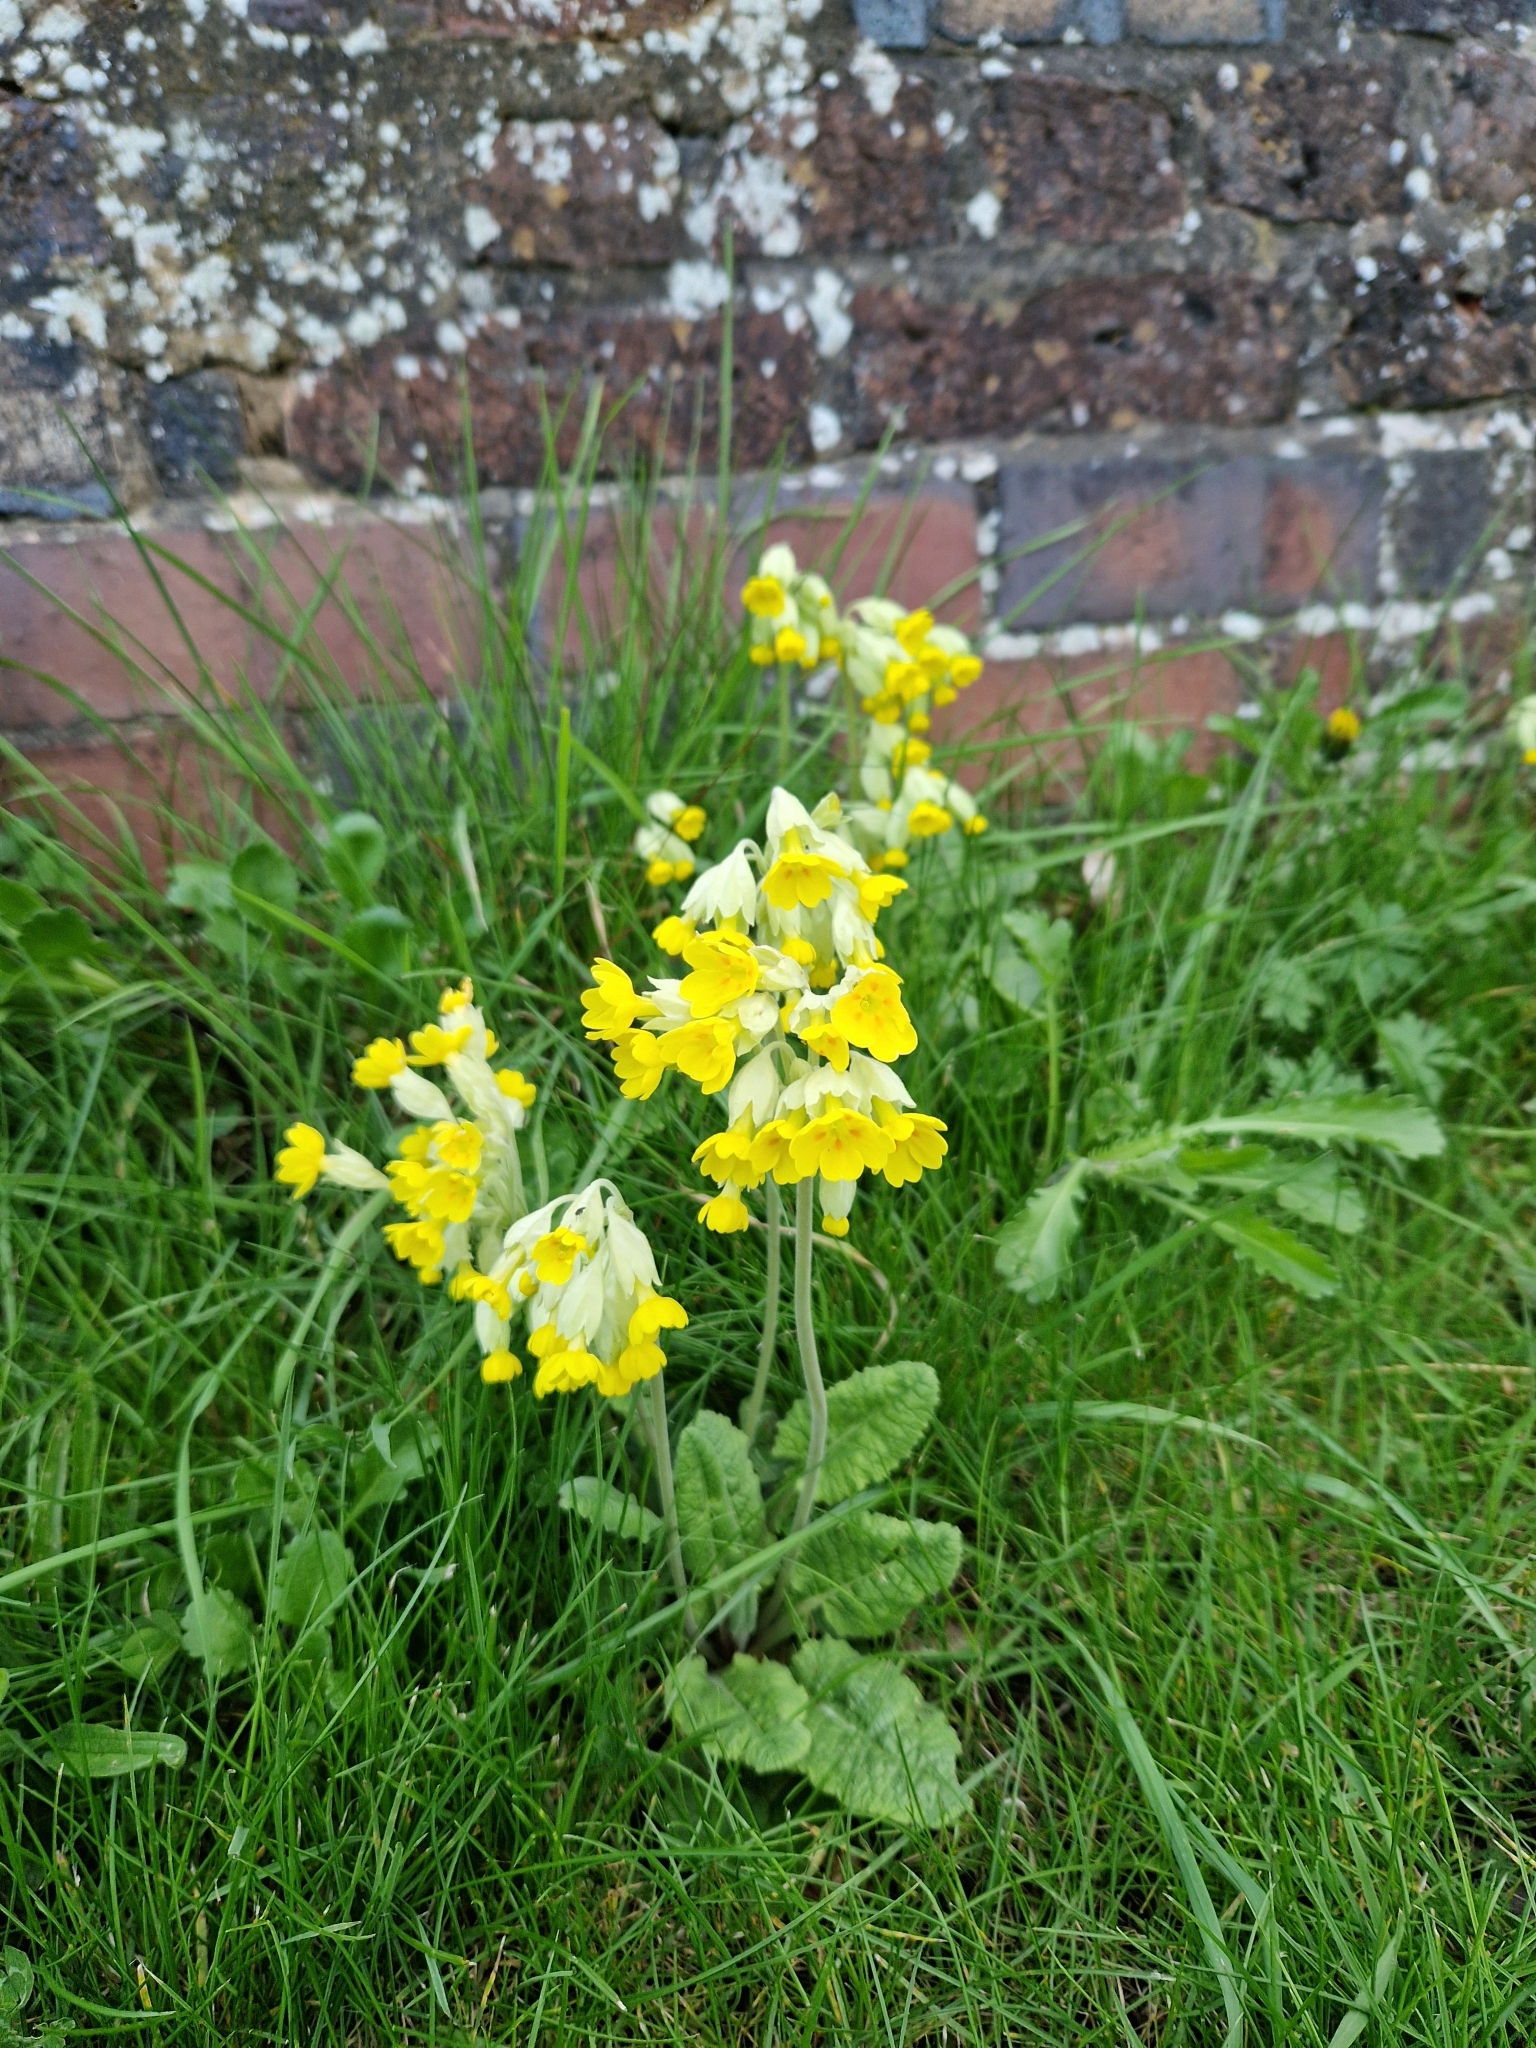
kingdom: Plantae
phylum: Tracheophyta
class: Magnoliopsida
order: Ericales
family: Primulaceae
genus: Primula
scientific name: Primula veris
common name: Cowslip
